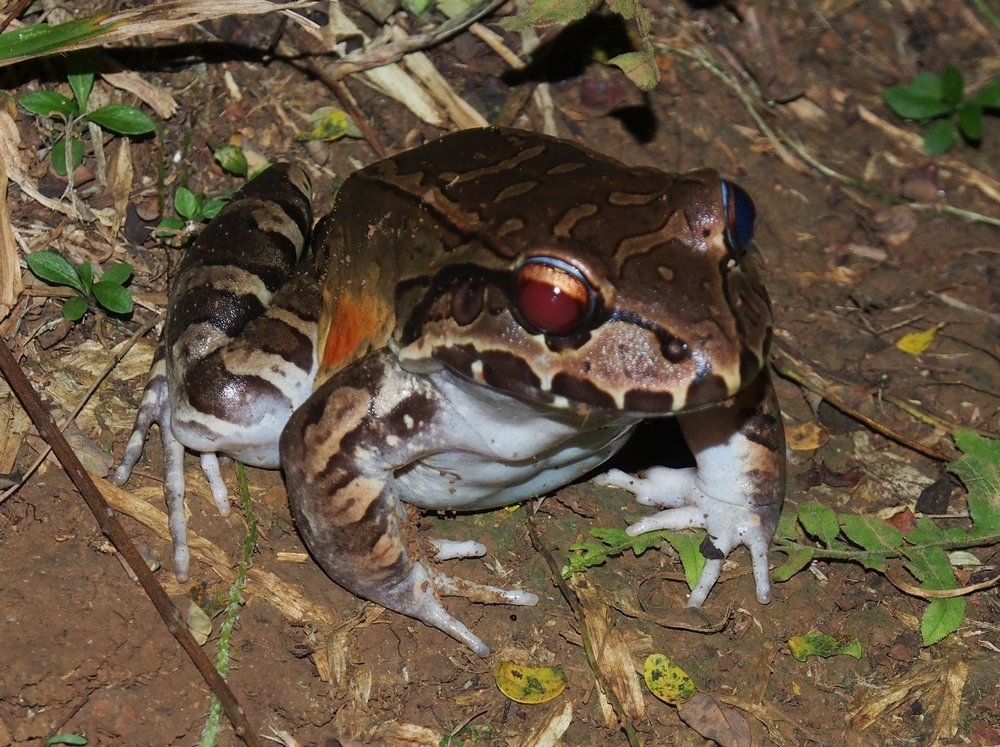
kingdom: Animalia
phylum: Chordata
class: Amphibia
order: Anura
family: Leptodactylidae
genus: Leptodactylus
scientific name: Leptodactylus savagei
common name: Savage's thin-toed frog
